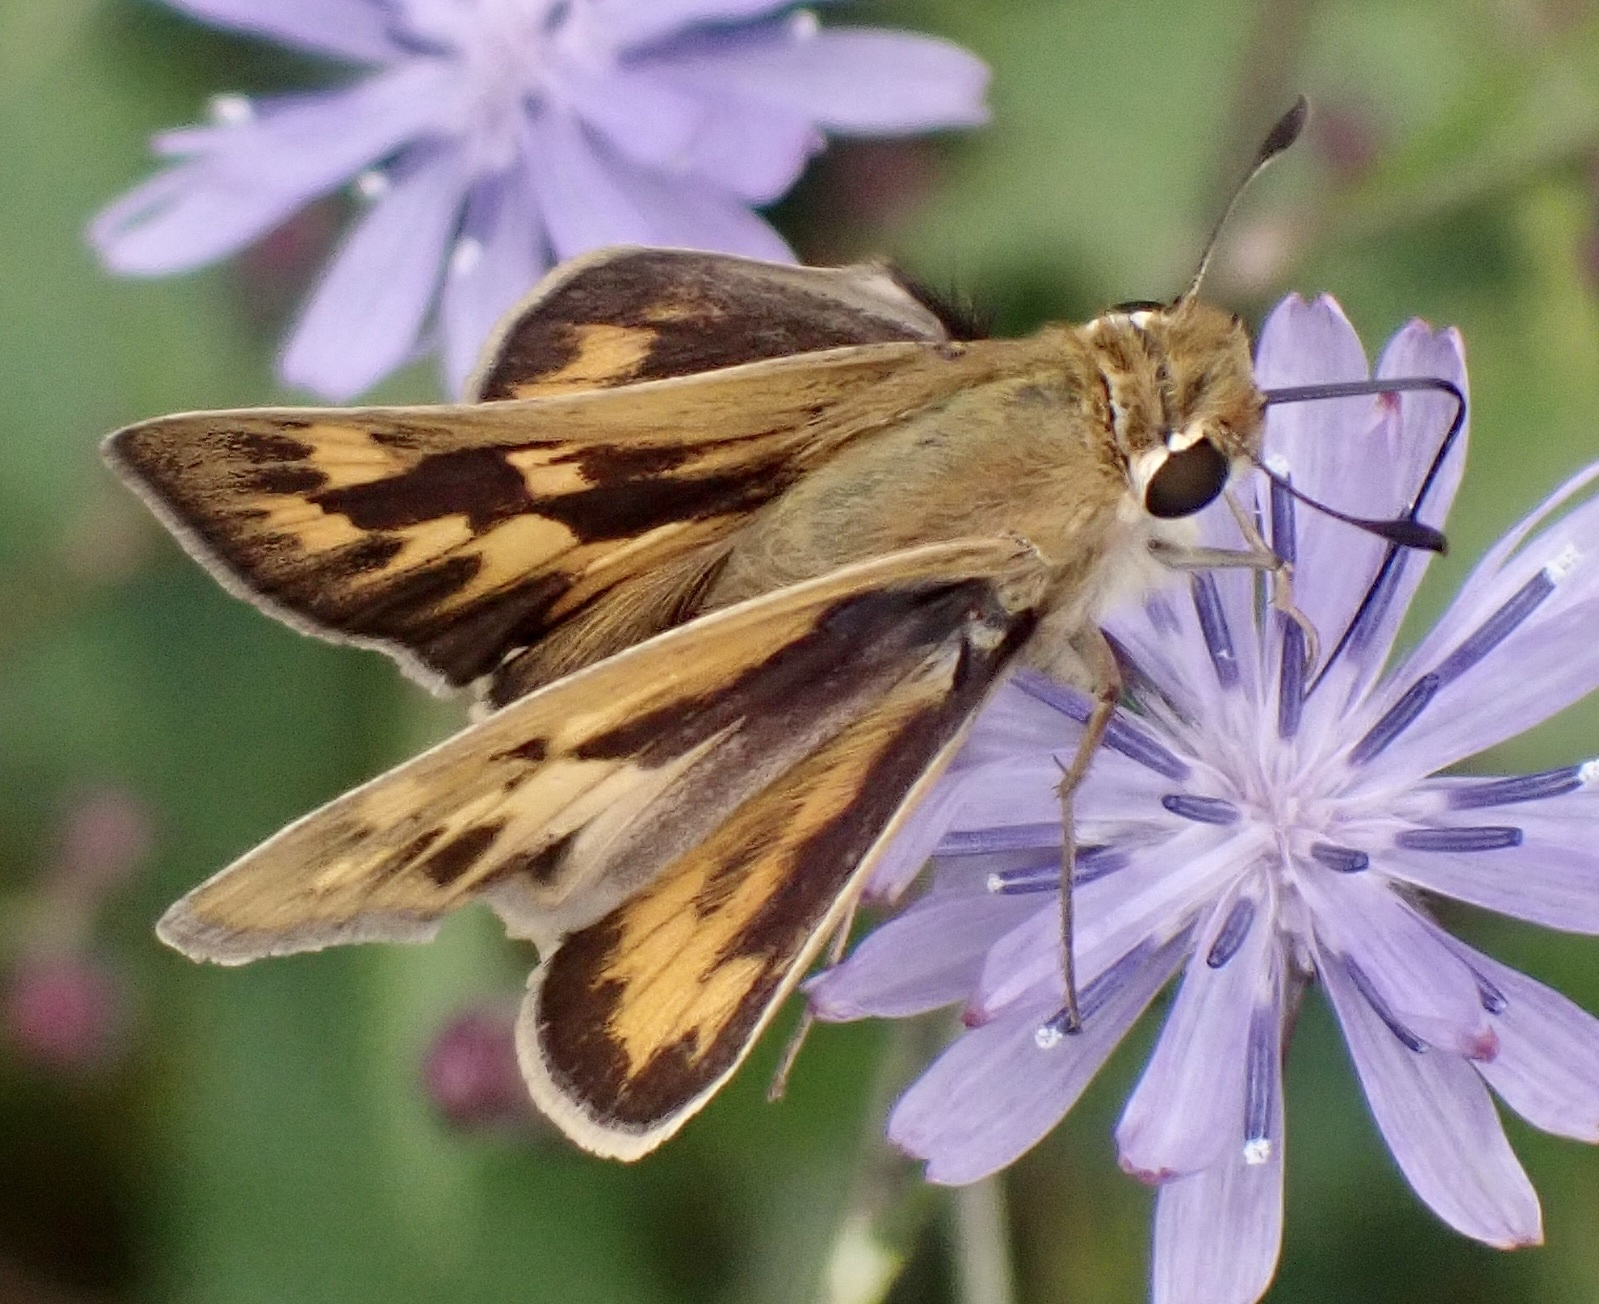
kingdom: Animalia
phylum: Arthropoda
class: Insecta
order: Lepidoptera
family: Hesperiidae
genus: Hylephila
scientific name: Hylephila phyleus
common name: Fiery skipper
